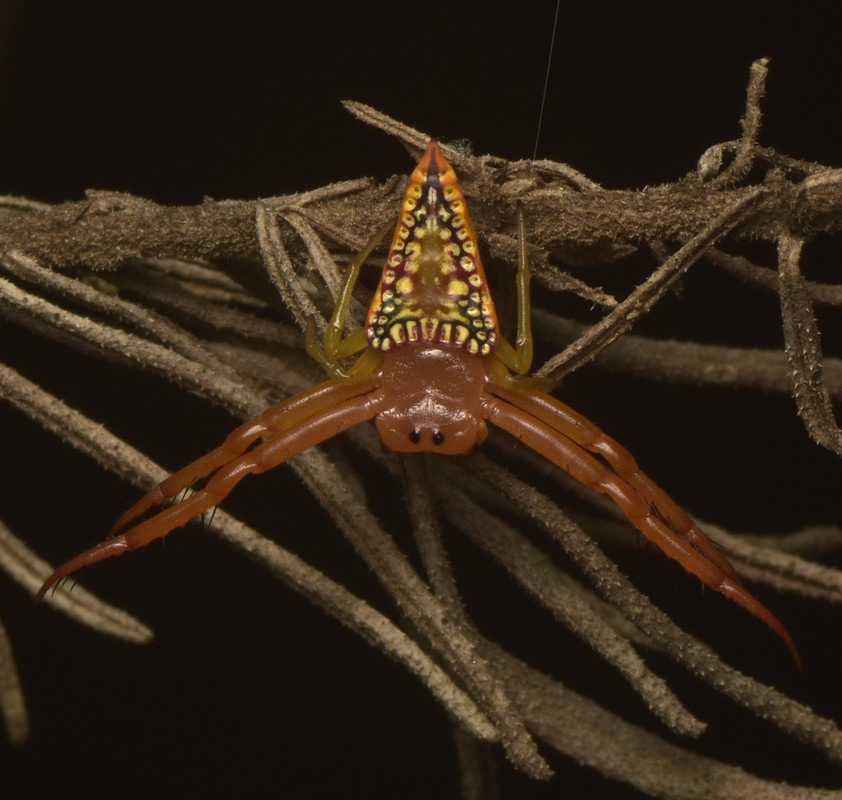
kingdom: Animalia
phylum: Arthropoda
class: Arachnida
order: Araneae
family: Arkyidae
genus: Arkys
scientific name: Arkys walckenaeri
